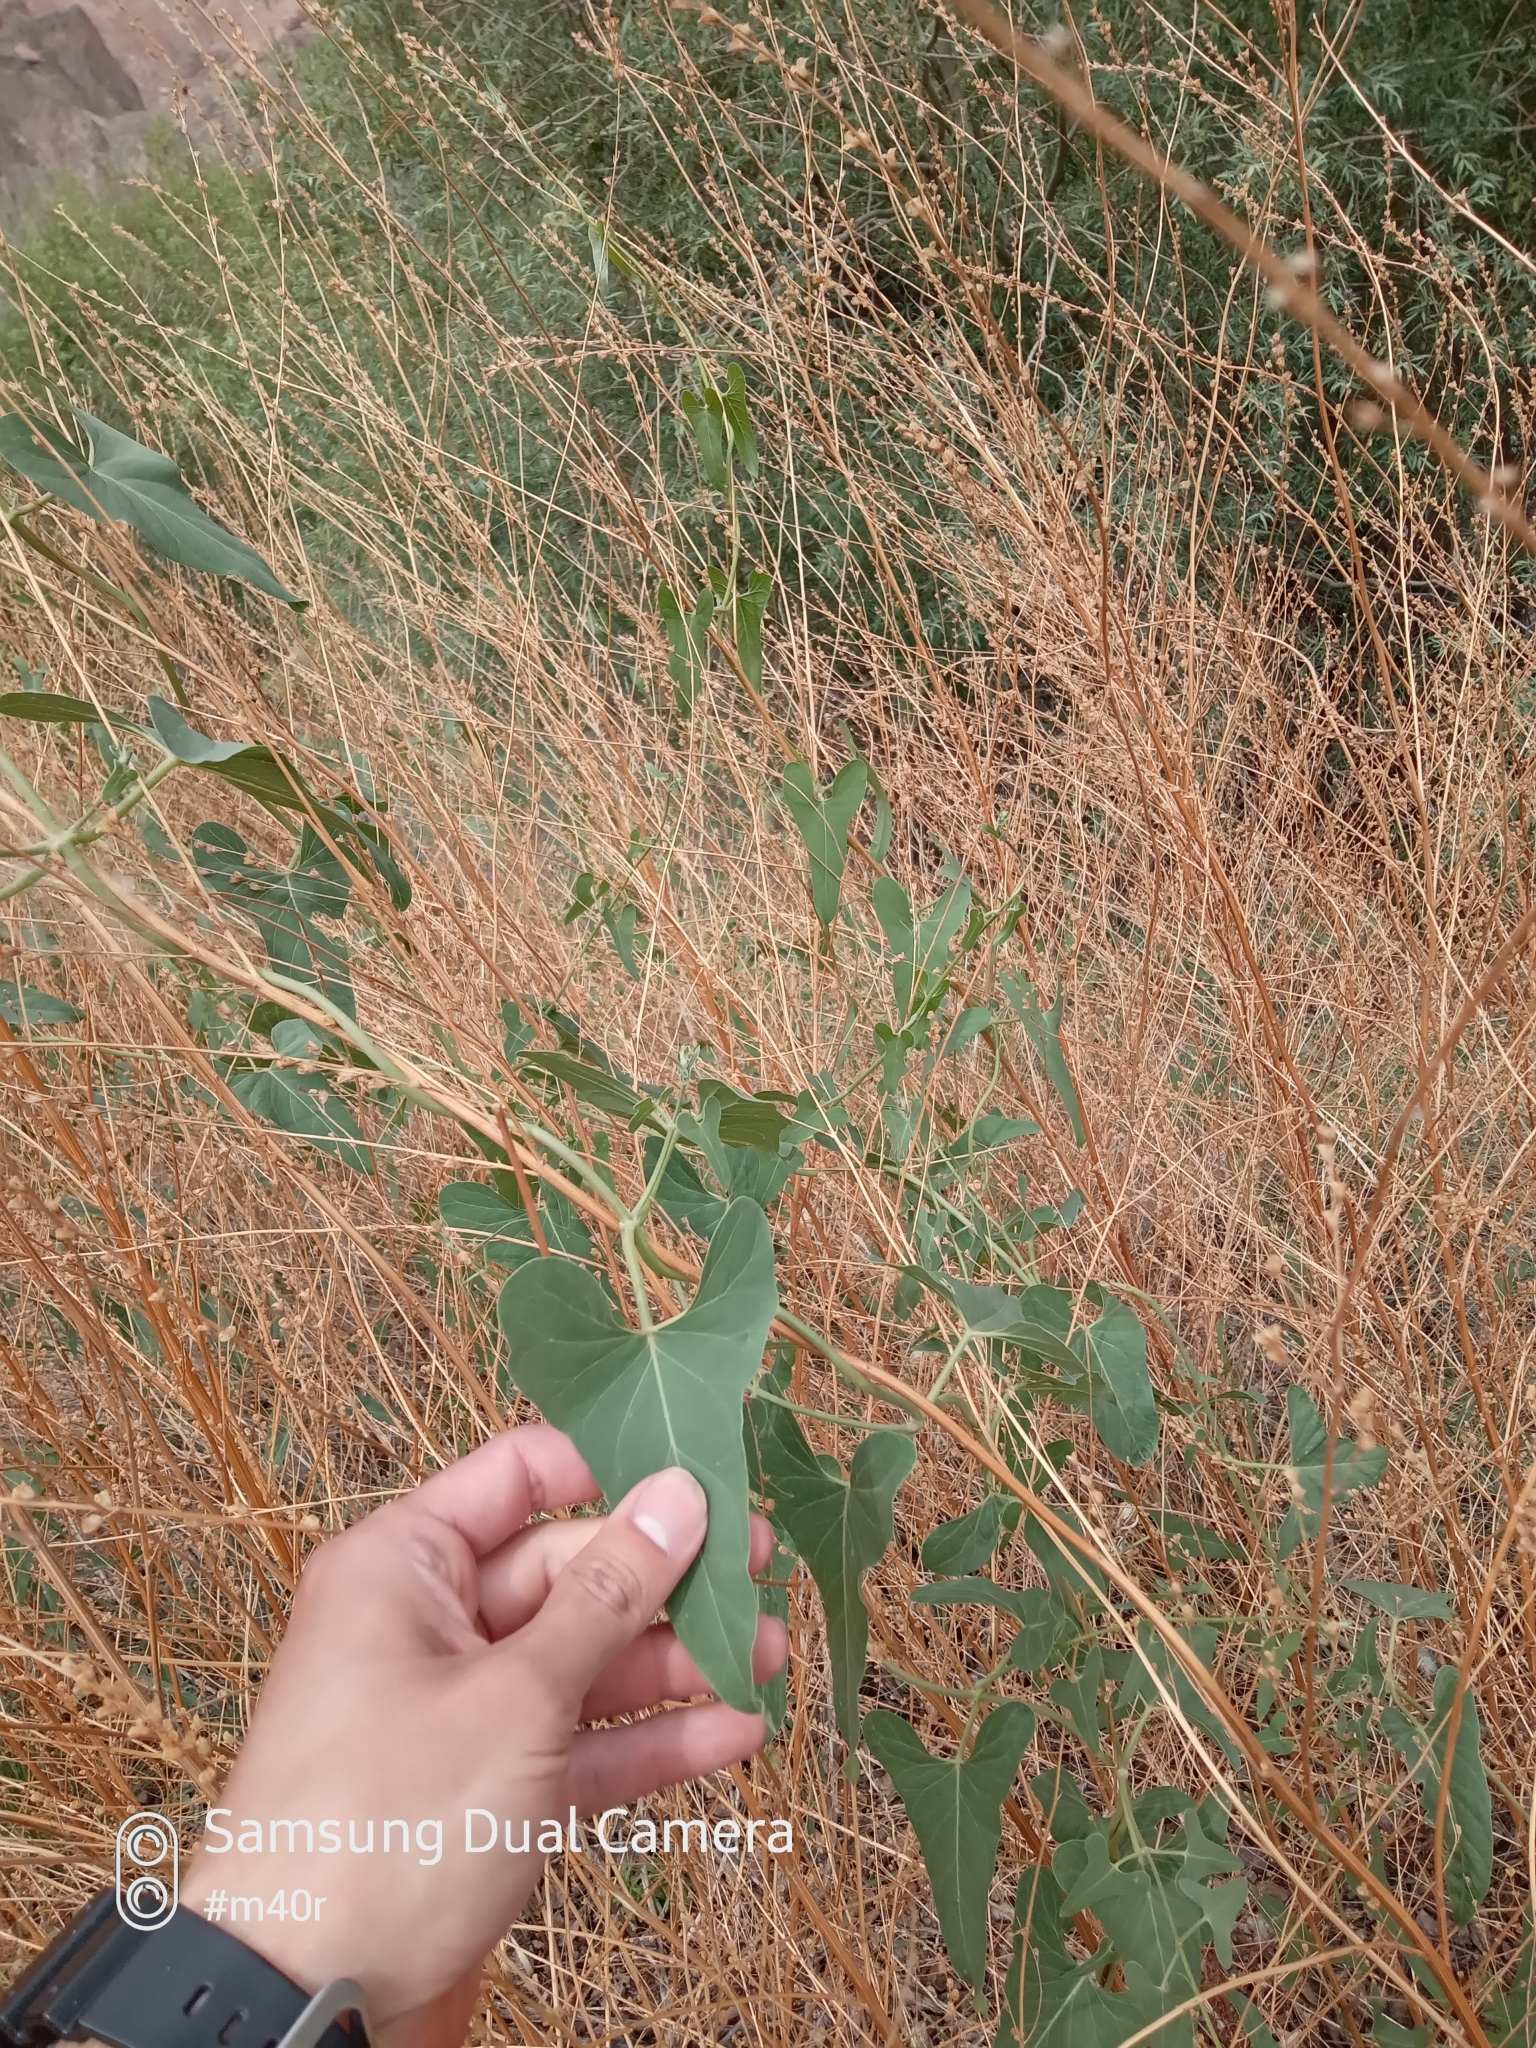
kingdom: Plantae
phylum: Tracheophyta
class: Magnoliopsida
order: Gentianales
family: Apocynaceae
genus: Cynanchum
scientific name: Cynanchum acutum
